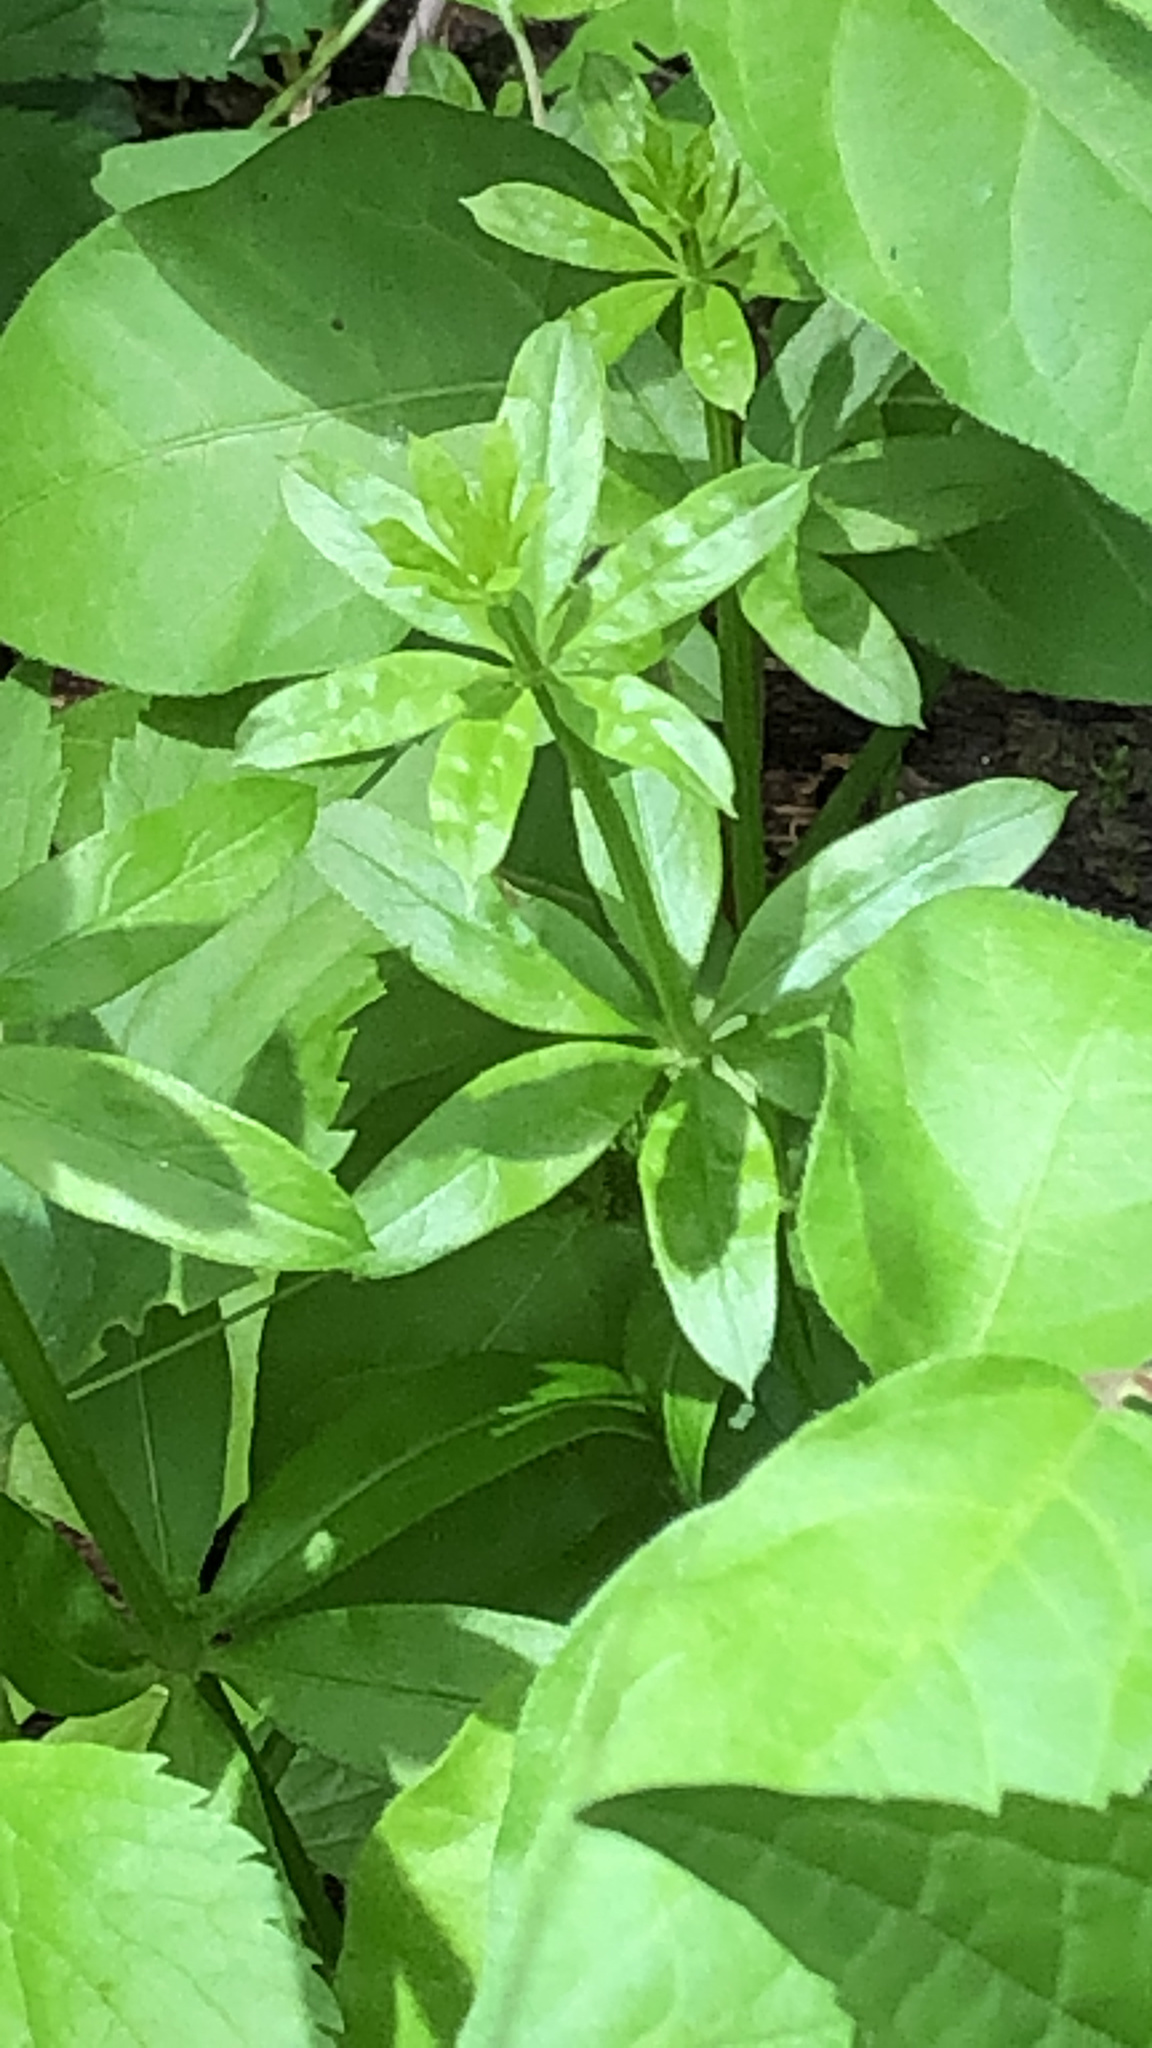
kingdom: Plantae
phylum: Tracheophyta
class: Magnoliopsida
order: Gentianales
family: Rubiaceae
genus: Galium
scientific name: Galium triflorum
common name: Fragrant bedstraw
